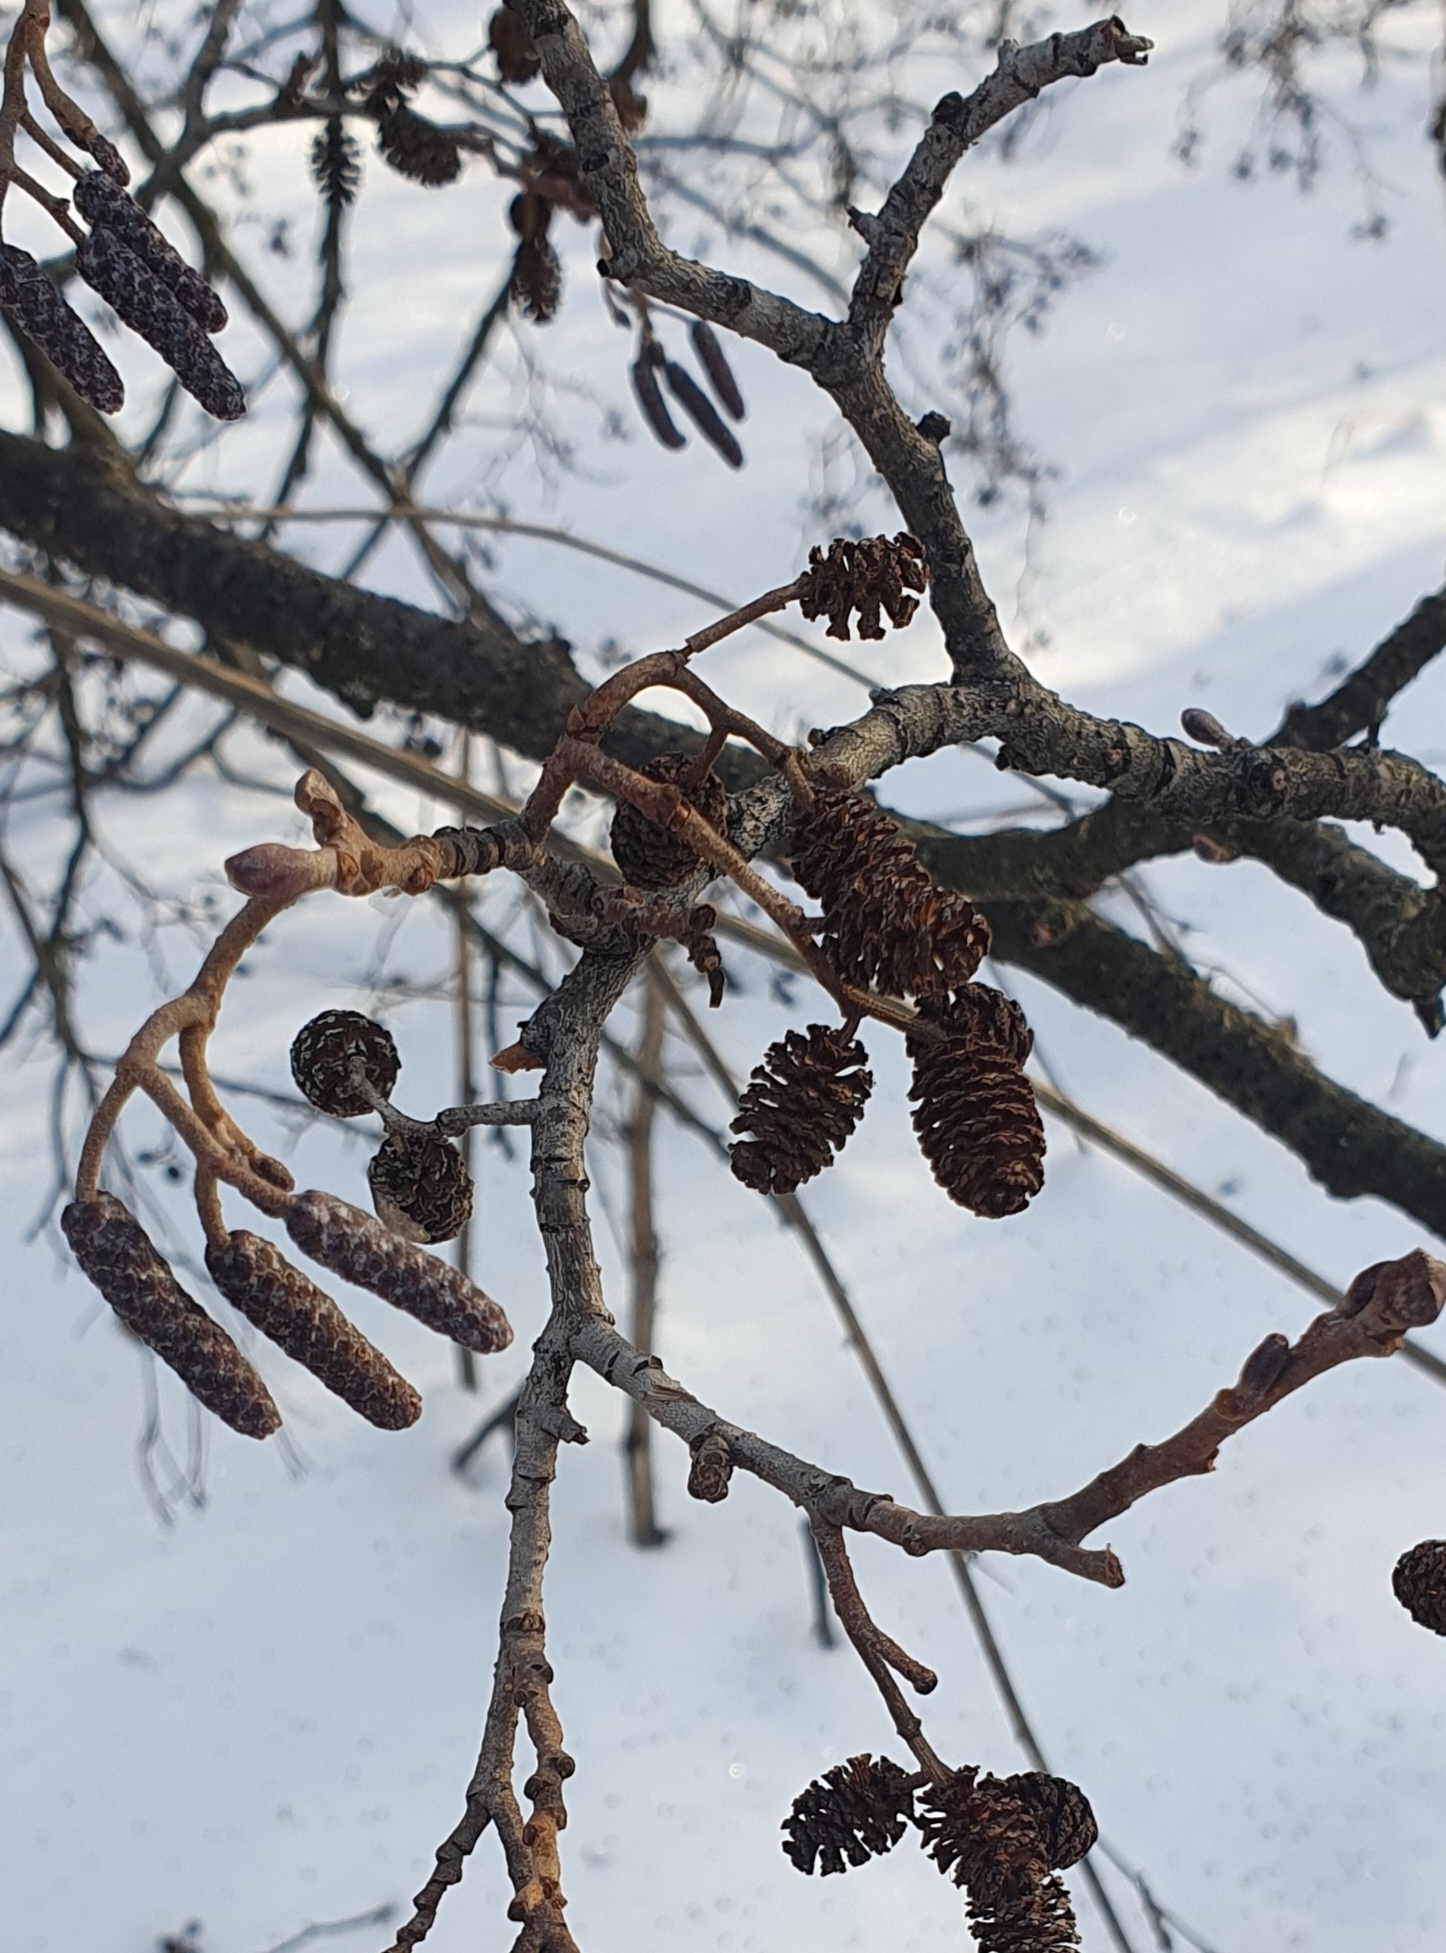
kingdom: Plantae
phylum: Tracheophyta
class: Magnoliopsida
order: Fagales
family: Betulaceae
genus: Alnus
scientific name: Alnus glutinosa
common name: Black alder
